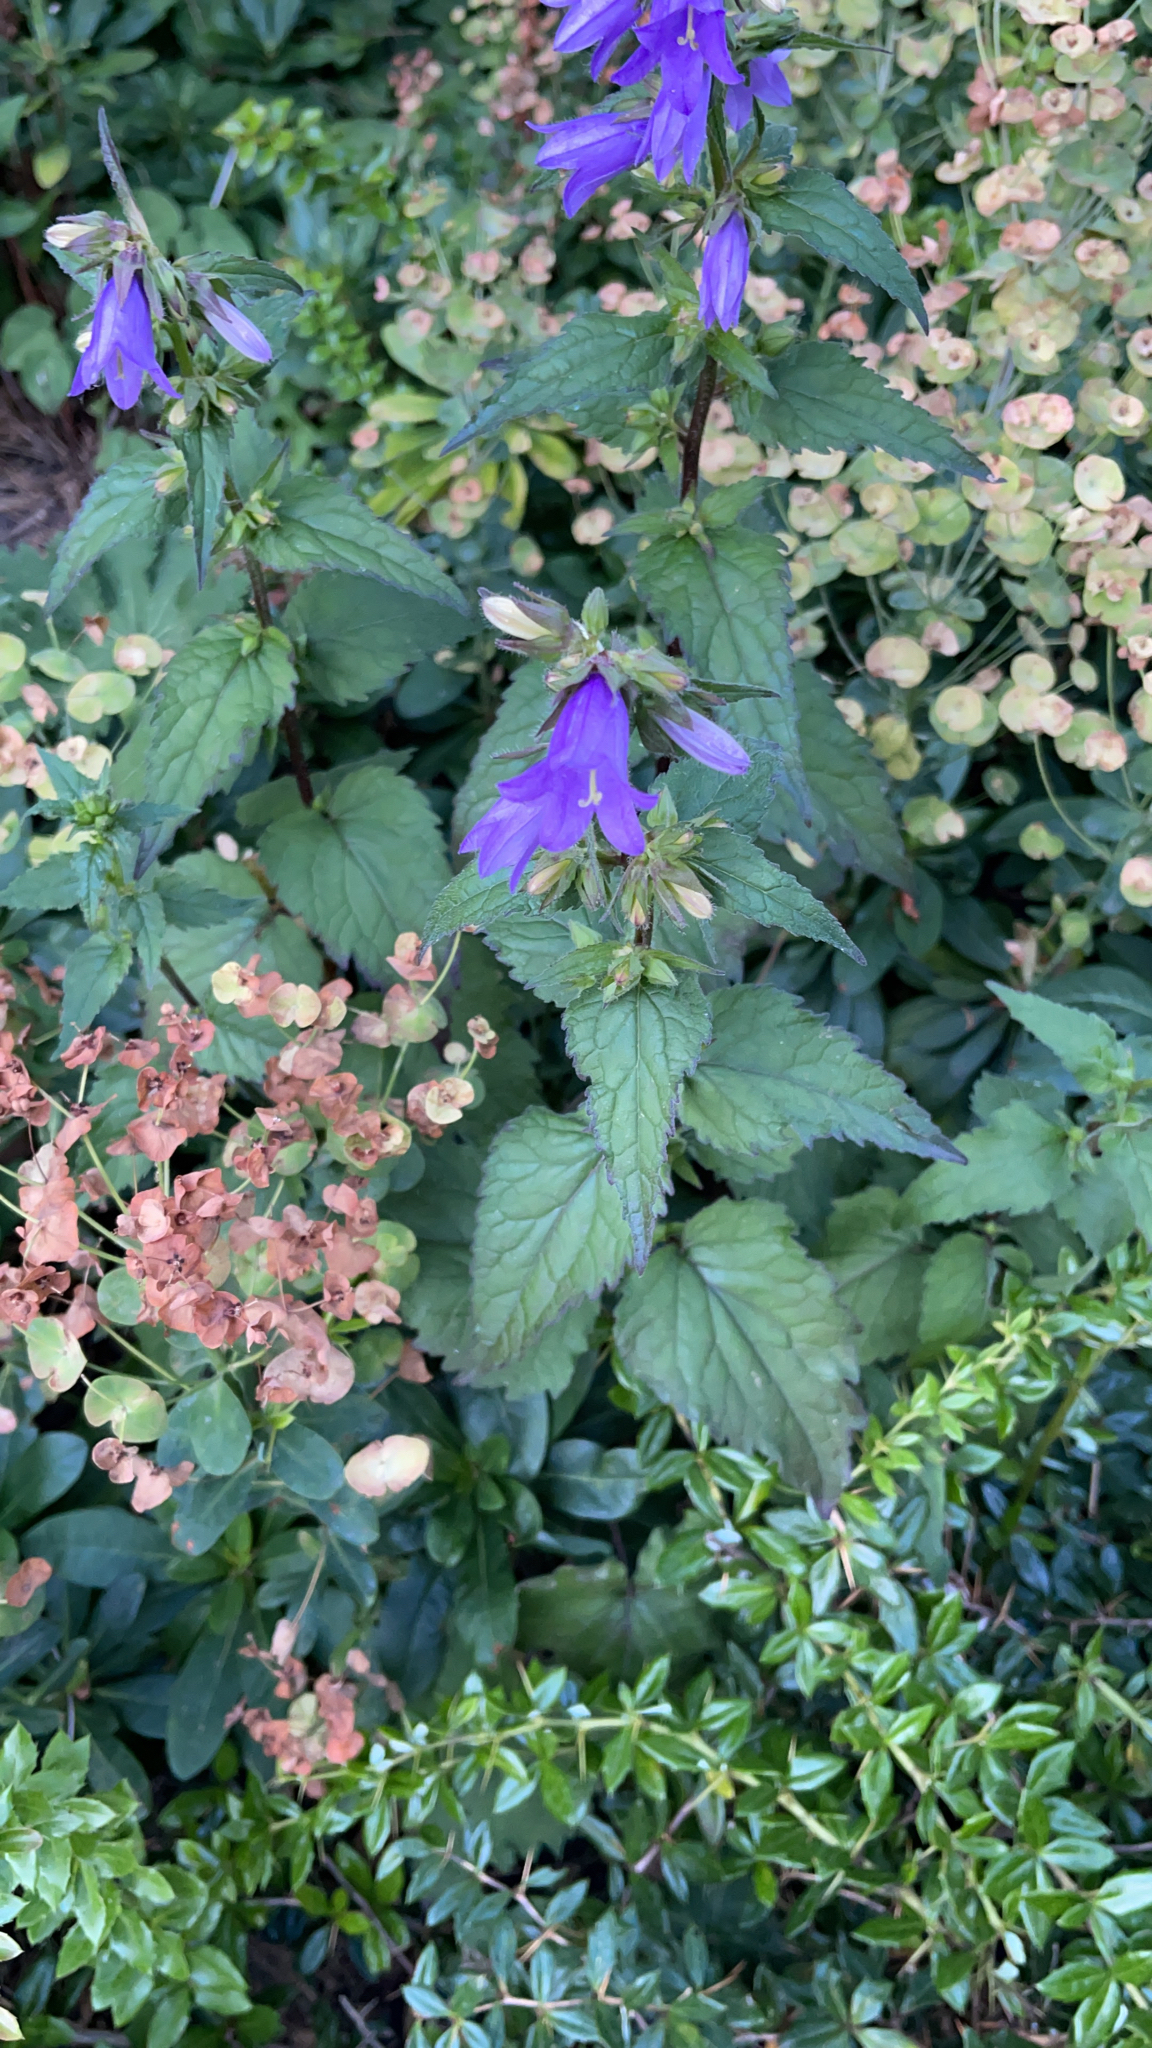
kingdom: Plantae
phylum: Tracheophyta
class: Magnoliopsida
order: Asterales
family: Campanulaceae
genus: Campanula
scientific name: Campanula trachelium
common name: Nettle-leaved bellflower
